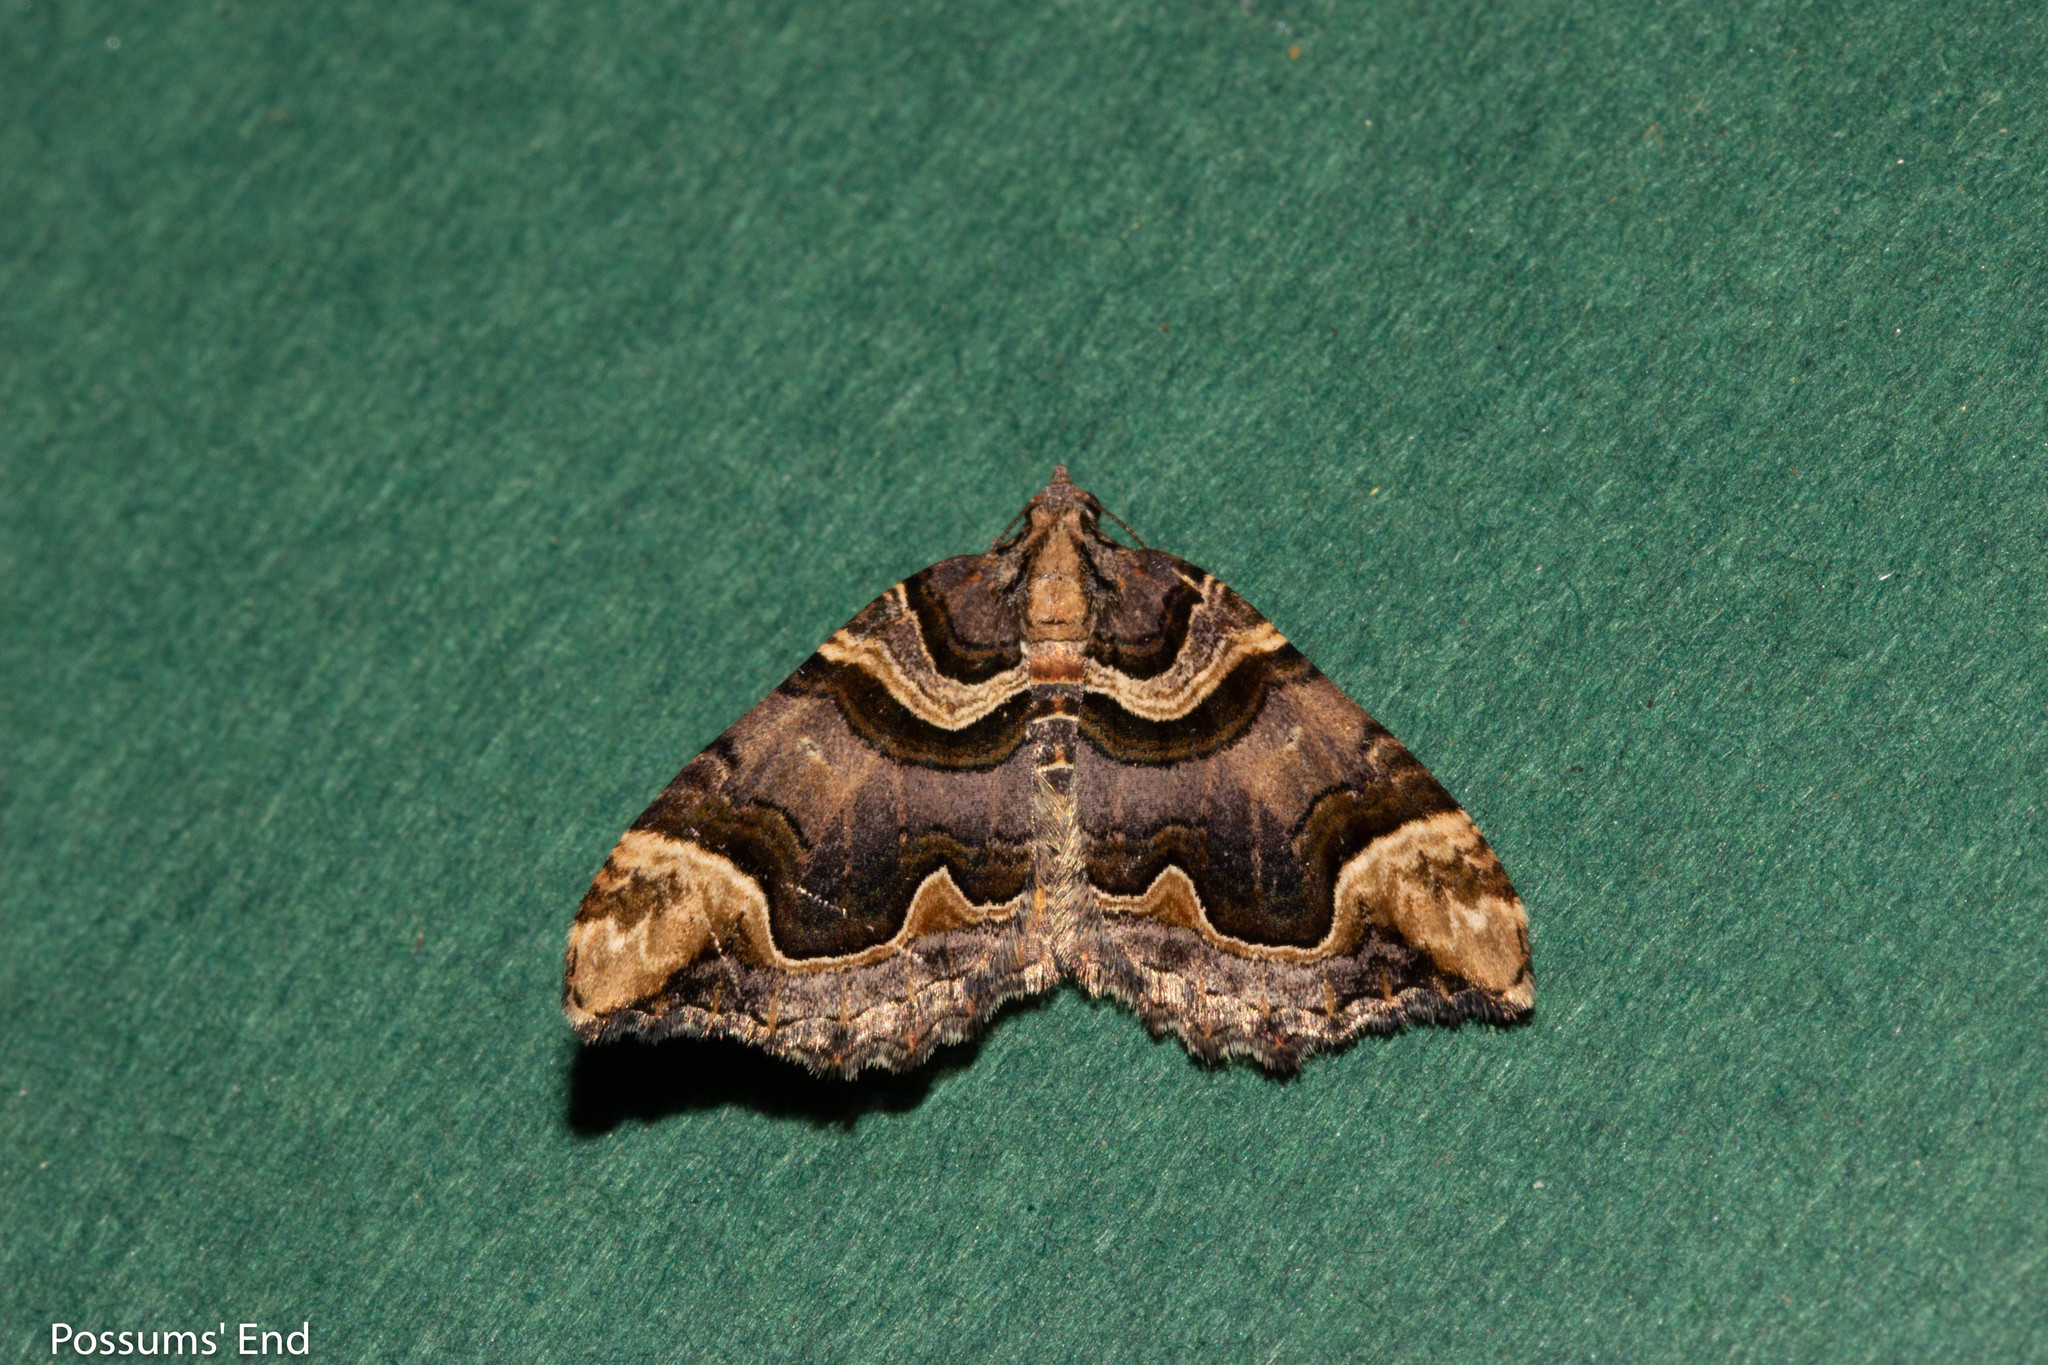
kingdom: Animalia
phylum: Arthropoda
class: Insecta
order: Lepidoptera
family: Geometridae
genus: Asaphodes
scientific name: Asaphodes chlamydota
